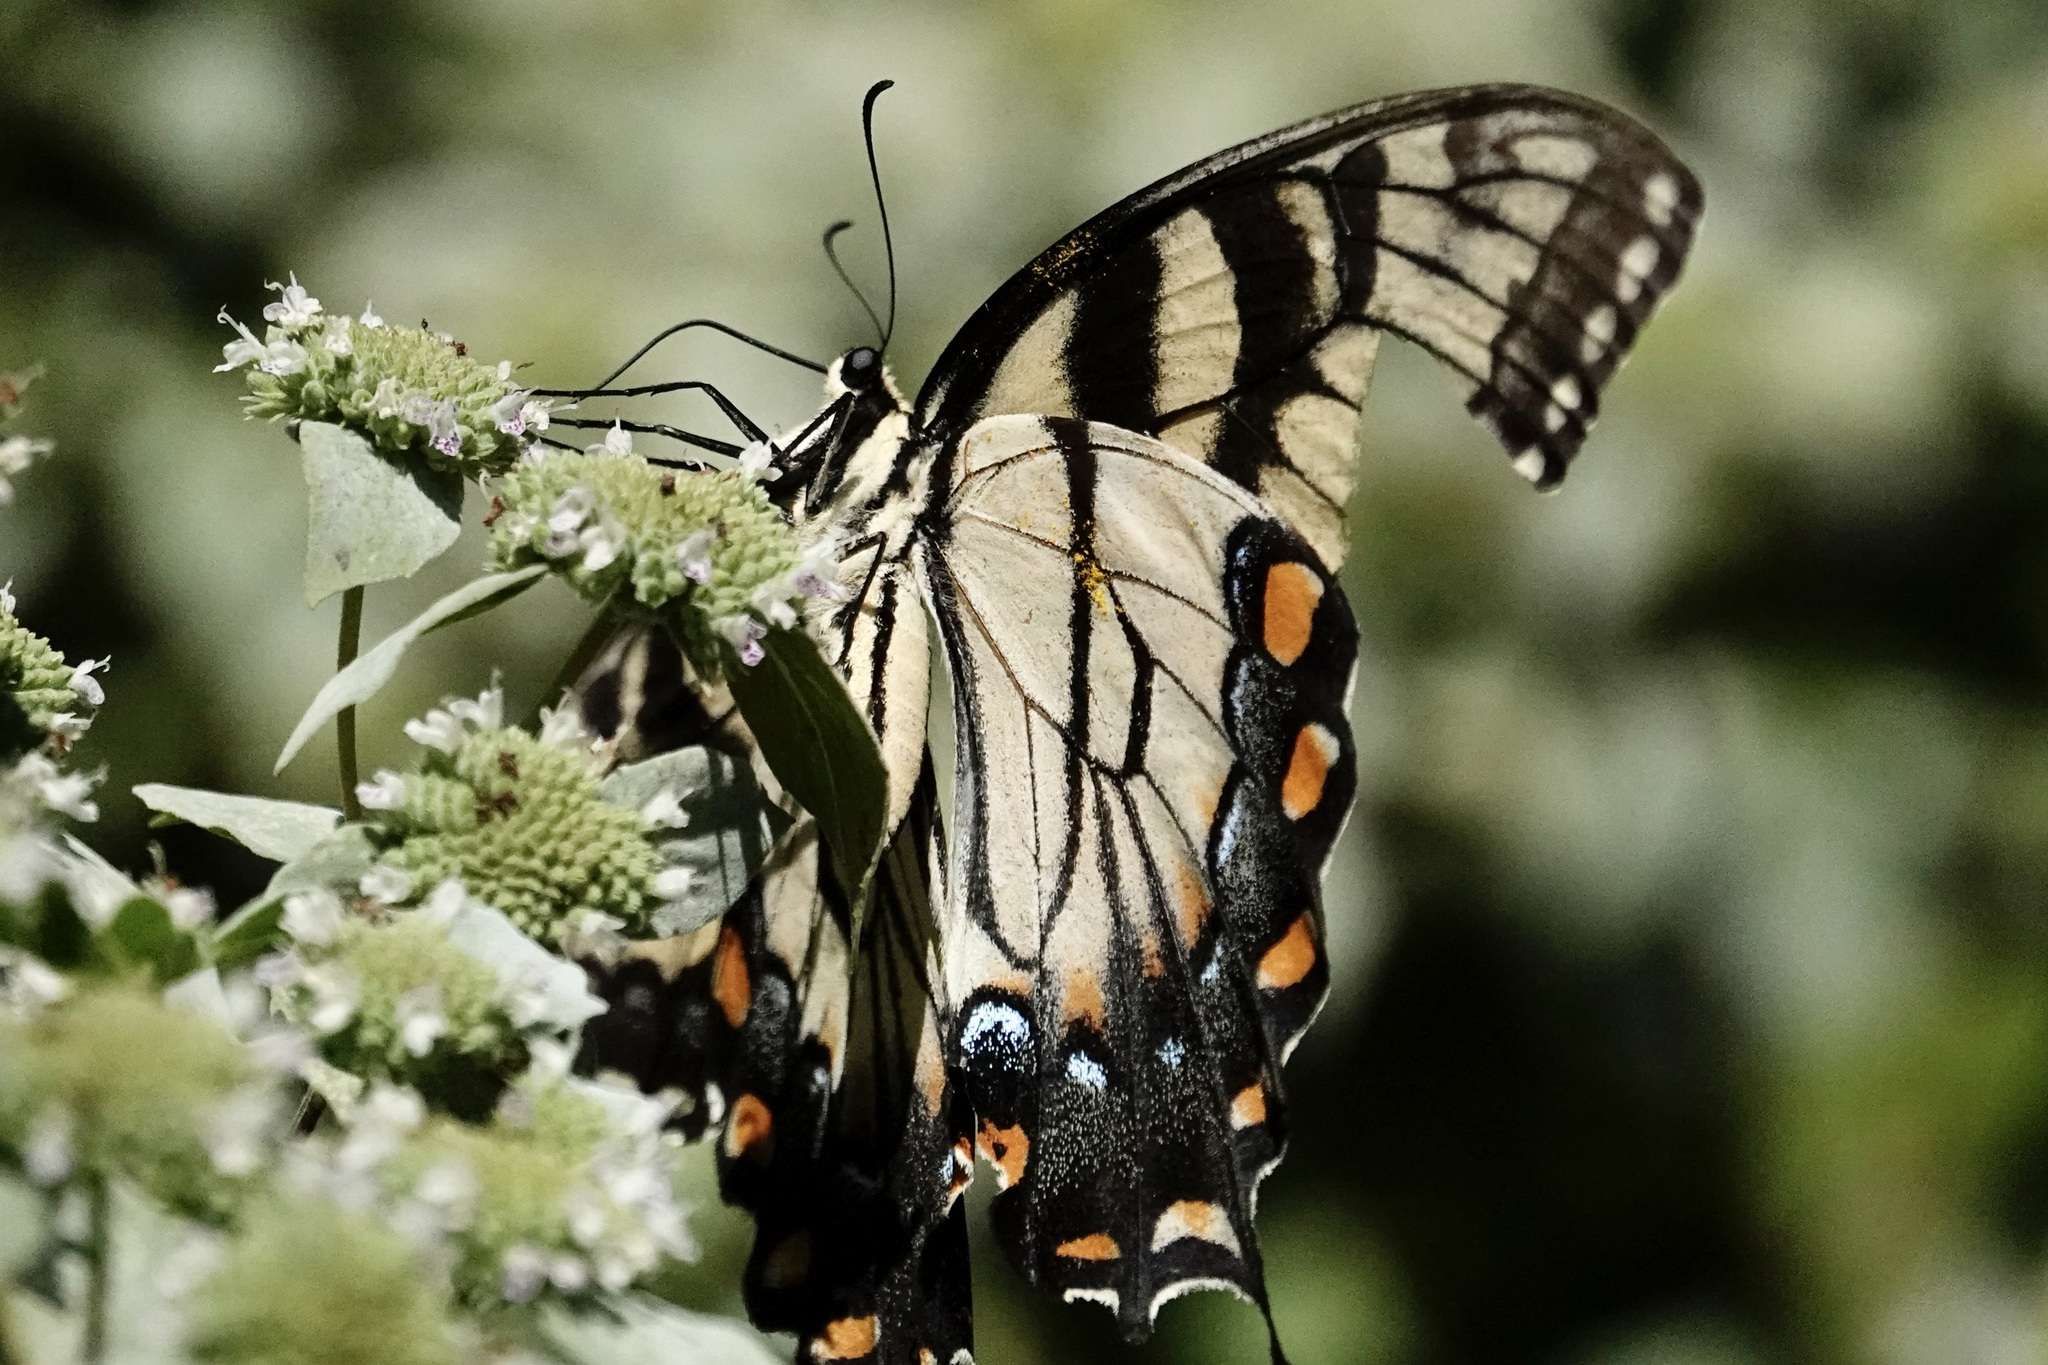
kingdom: Animalia
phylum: Arthropoda
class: Insecta
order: Lepidoptera
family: Papilionidae
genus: Papilio
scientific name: Papilio glaucus
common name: Tiger swallowtail
